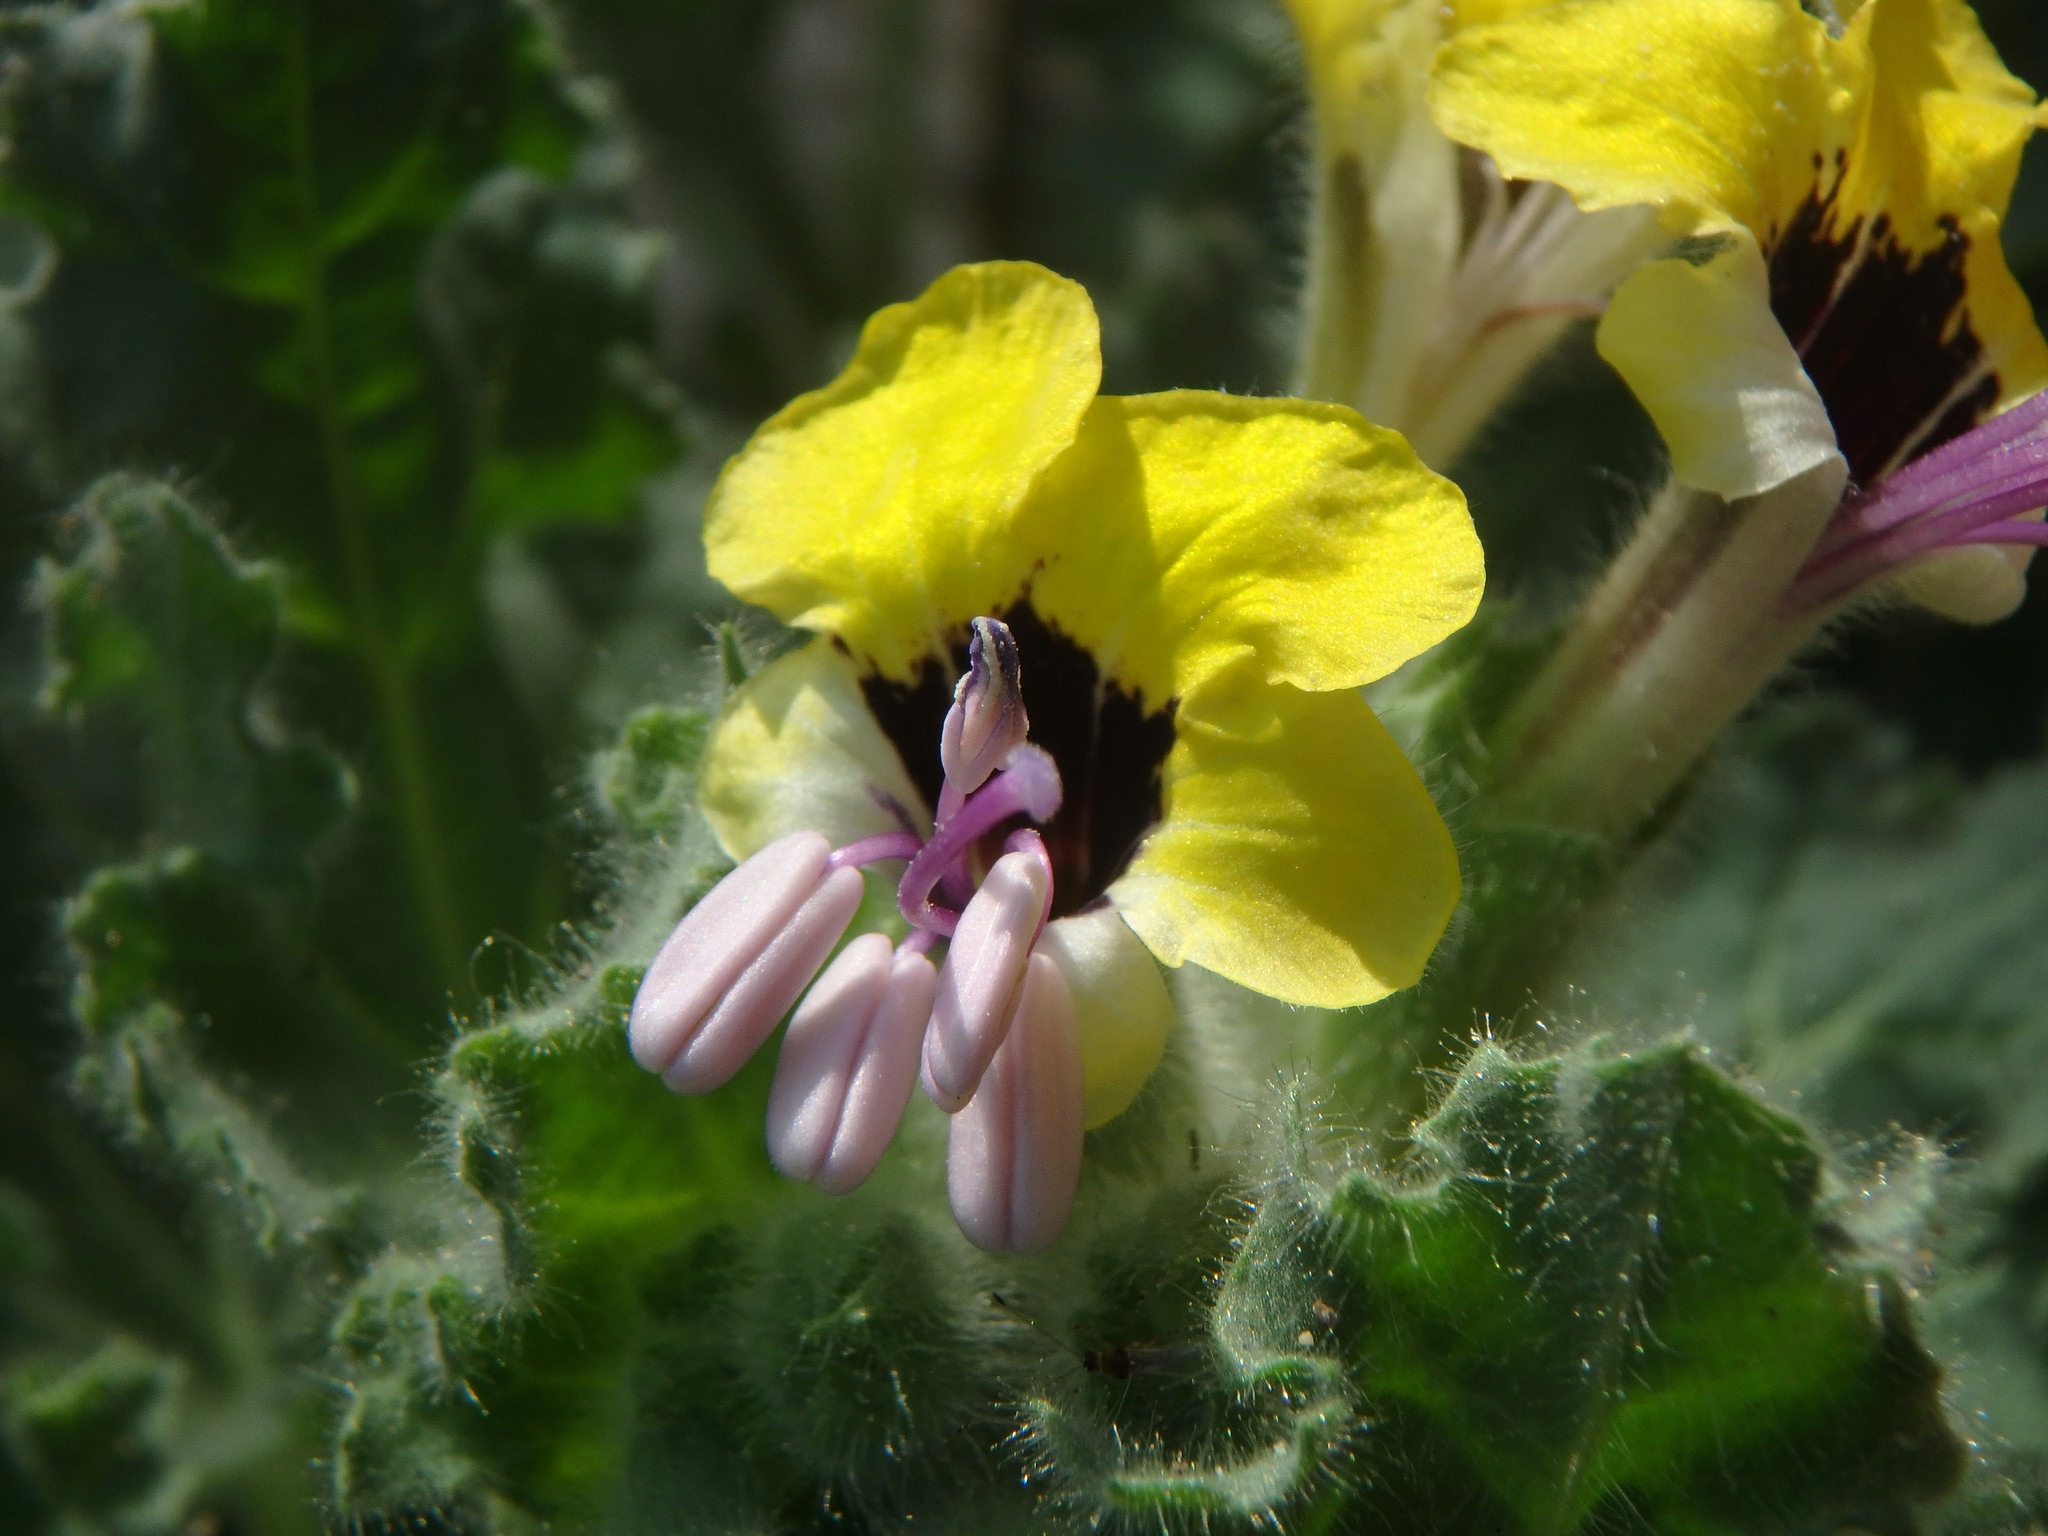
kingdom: Plantae
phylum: Tracheophyta
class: Magnoliopsida
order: Solanales
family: Solanaceae
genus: Hyoscyamus
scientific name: Hyoscyamus aureus
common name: Golden henbane
